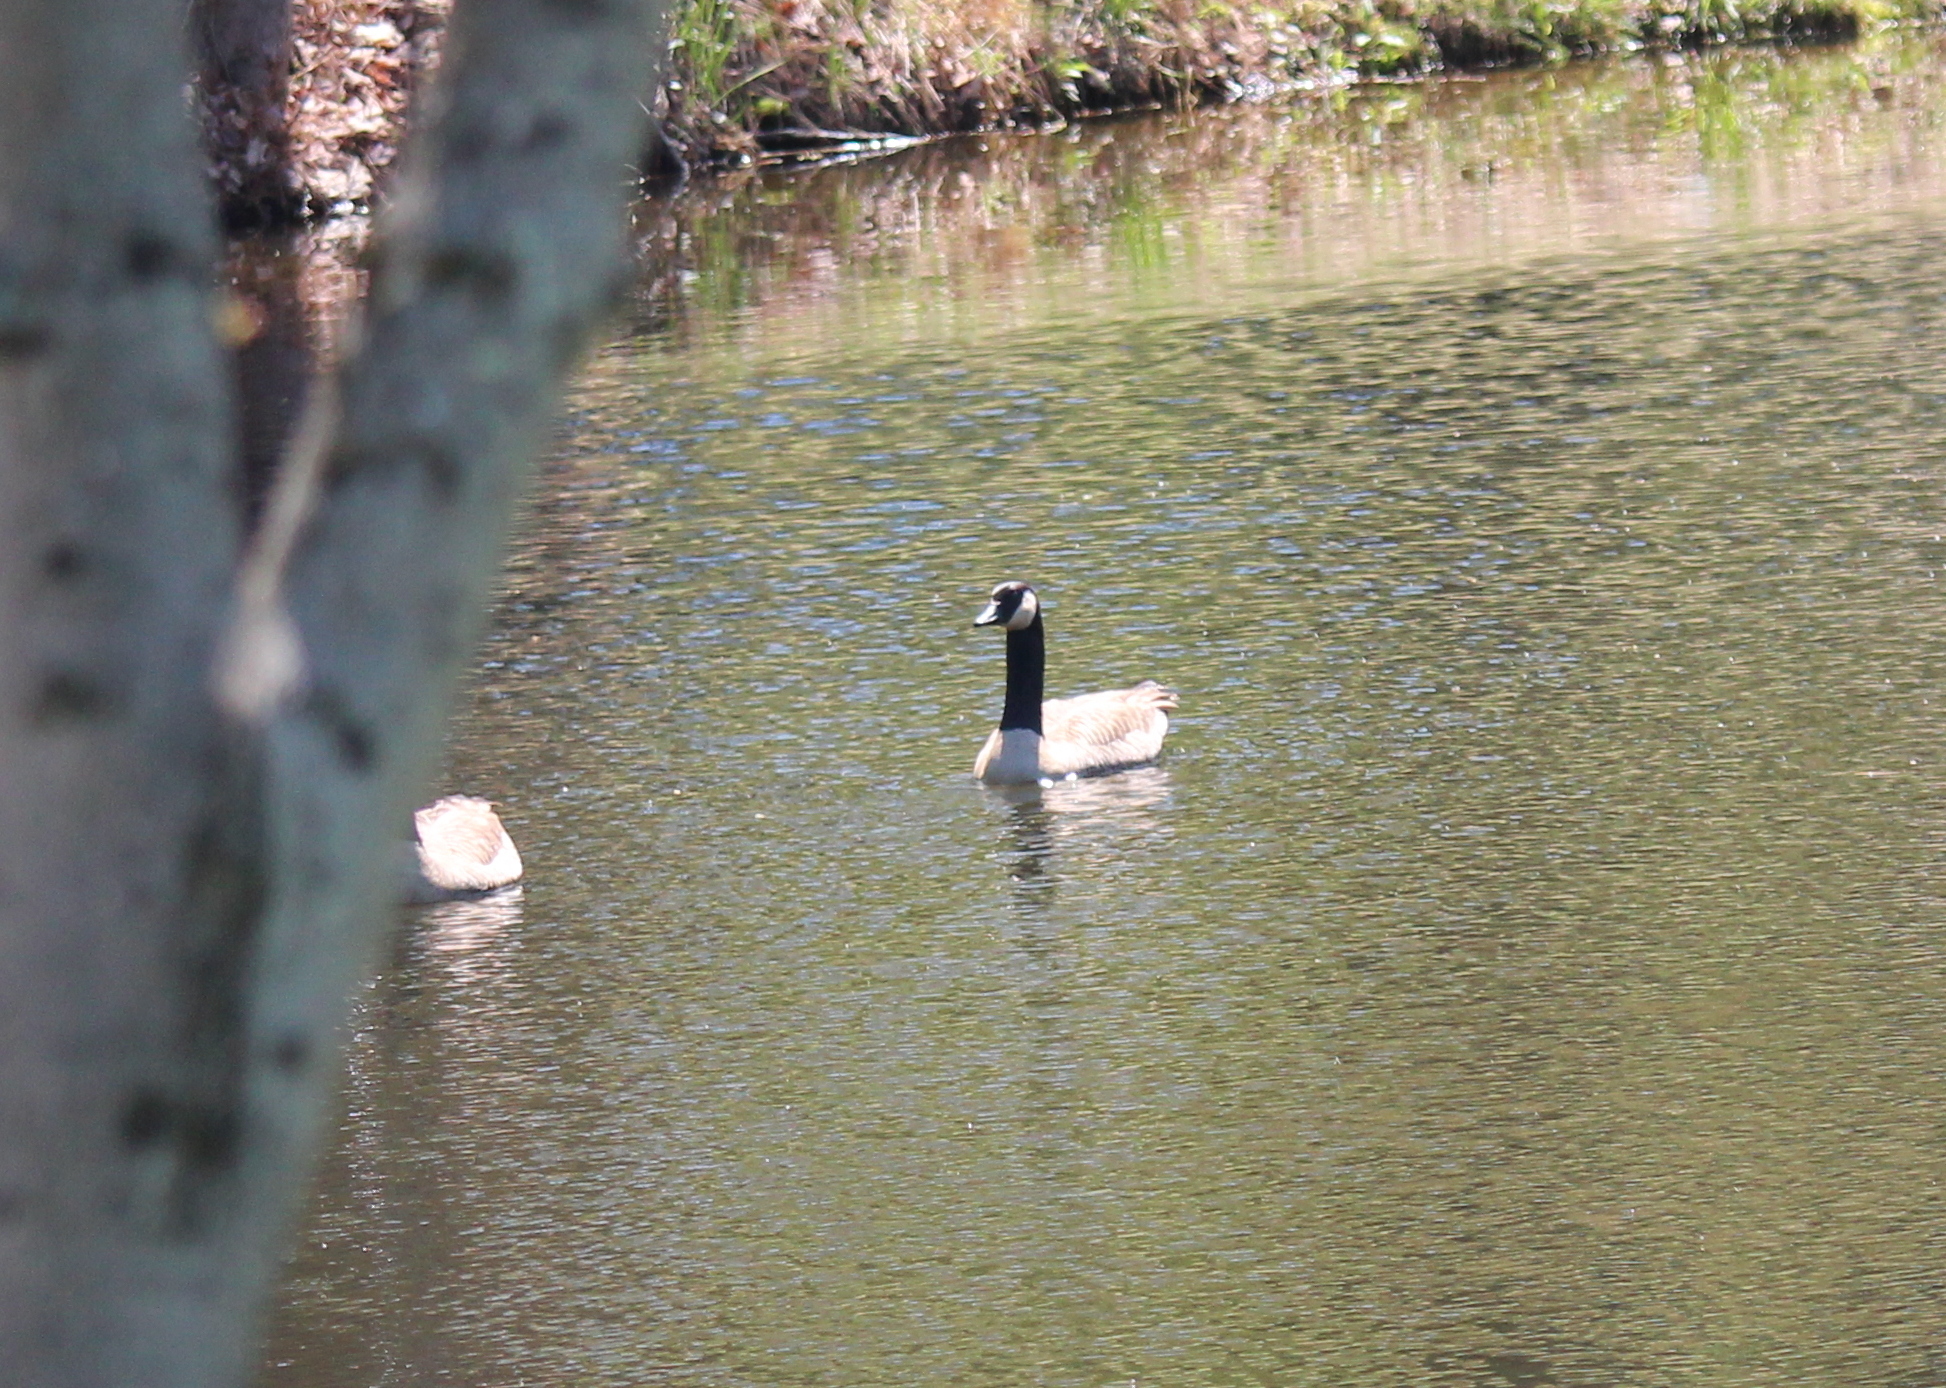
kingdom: Animalia
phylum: Chordata
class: Aves
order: Anseriformes
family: Anatidae
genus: Branta
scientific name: Branta canadensis
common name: Canada goose
